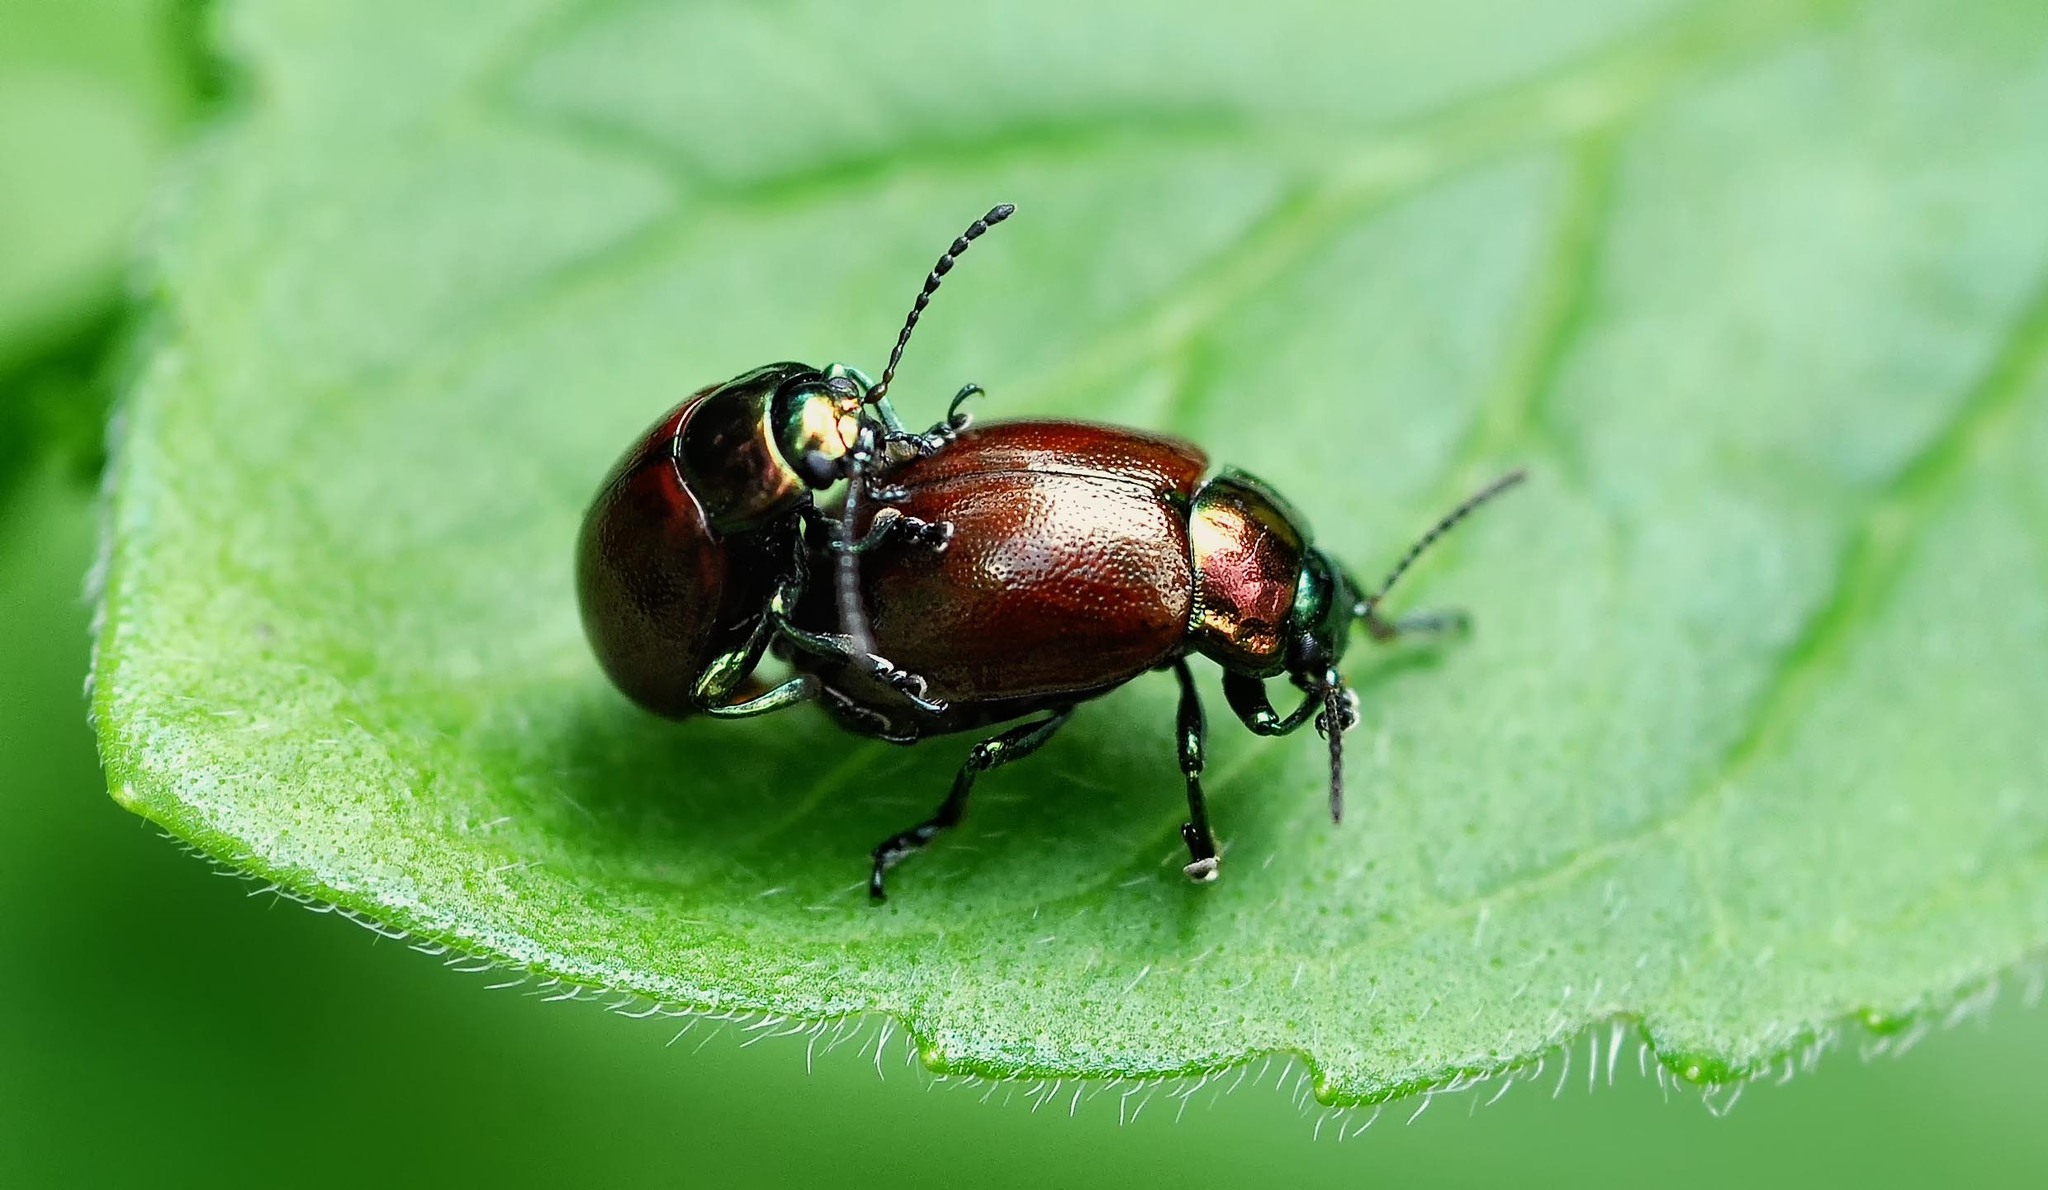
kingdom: Animalia
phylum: Arthropoda
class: Insecta
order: Coleoptera
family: Chrysomelidae
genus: Chrysomela
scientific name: Chrysomela polita
